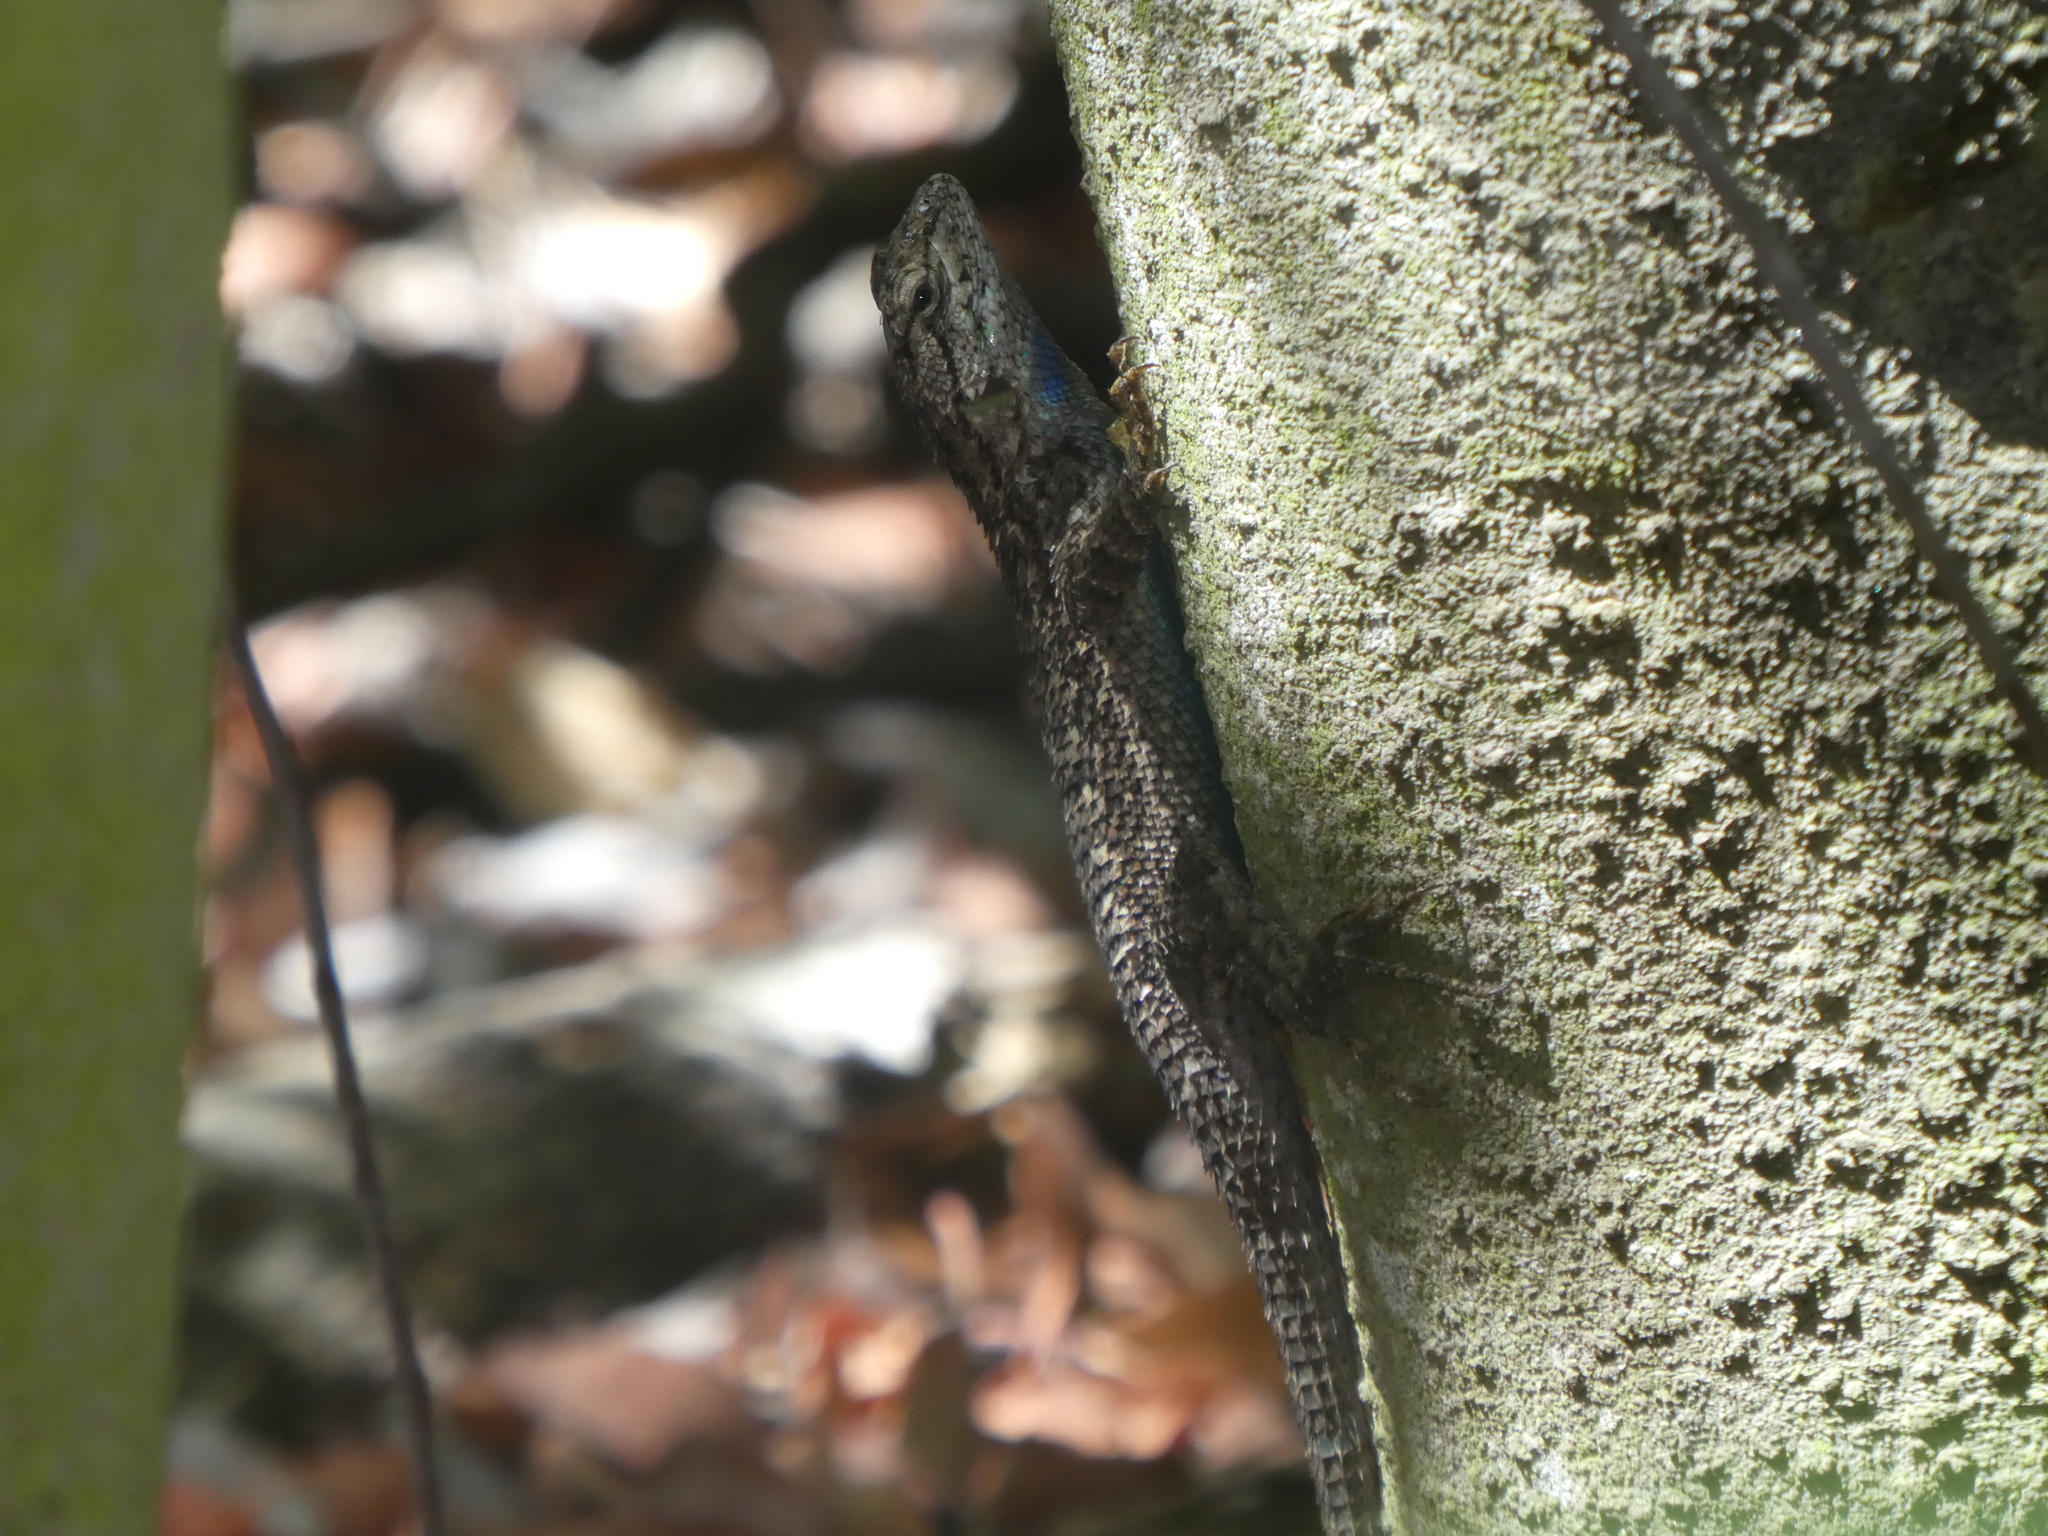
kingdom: Animalia
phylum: Chordata
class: Squamata
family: Phrynosomatidae
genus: Sceloporus
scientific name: Sceloporus occidentalis
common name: Western fence lizard
